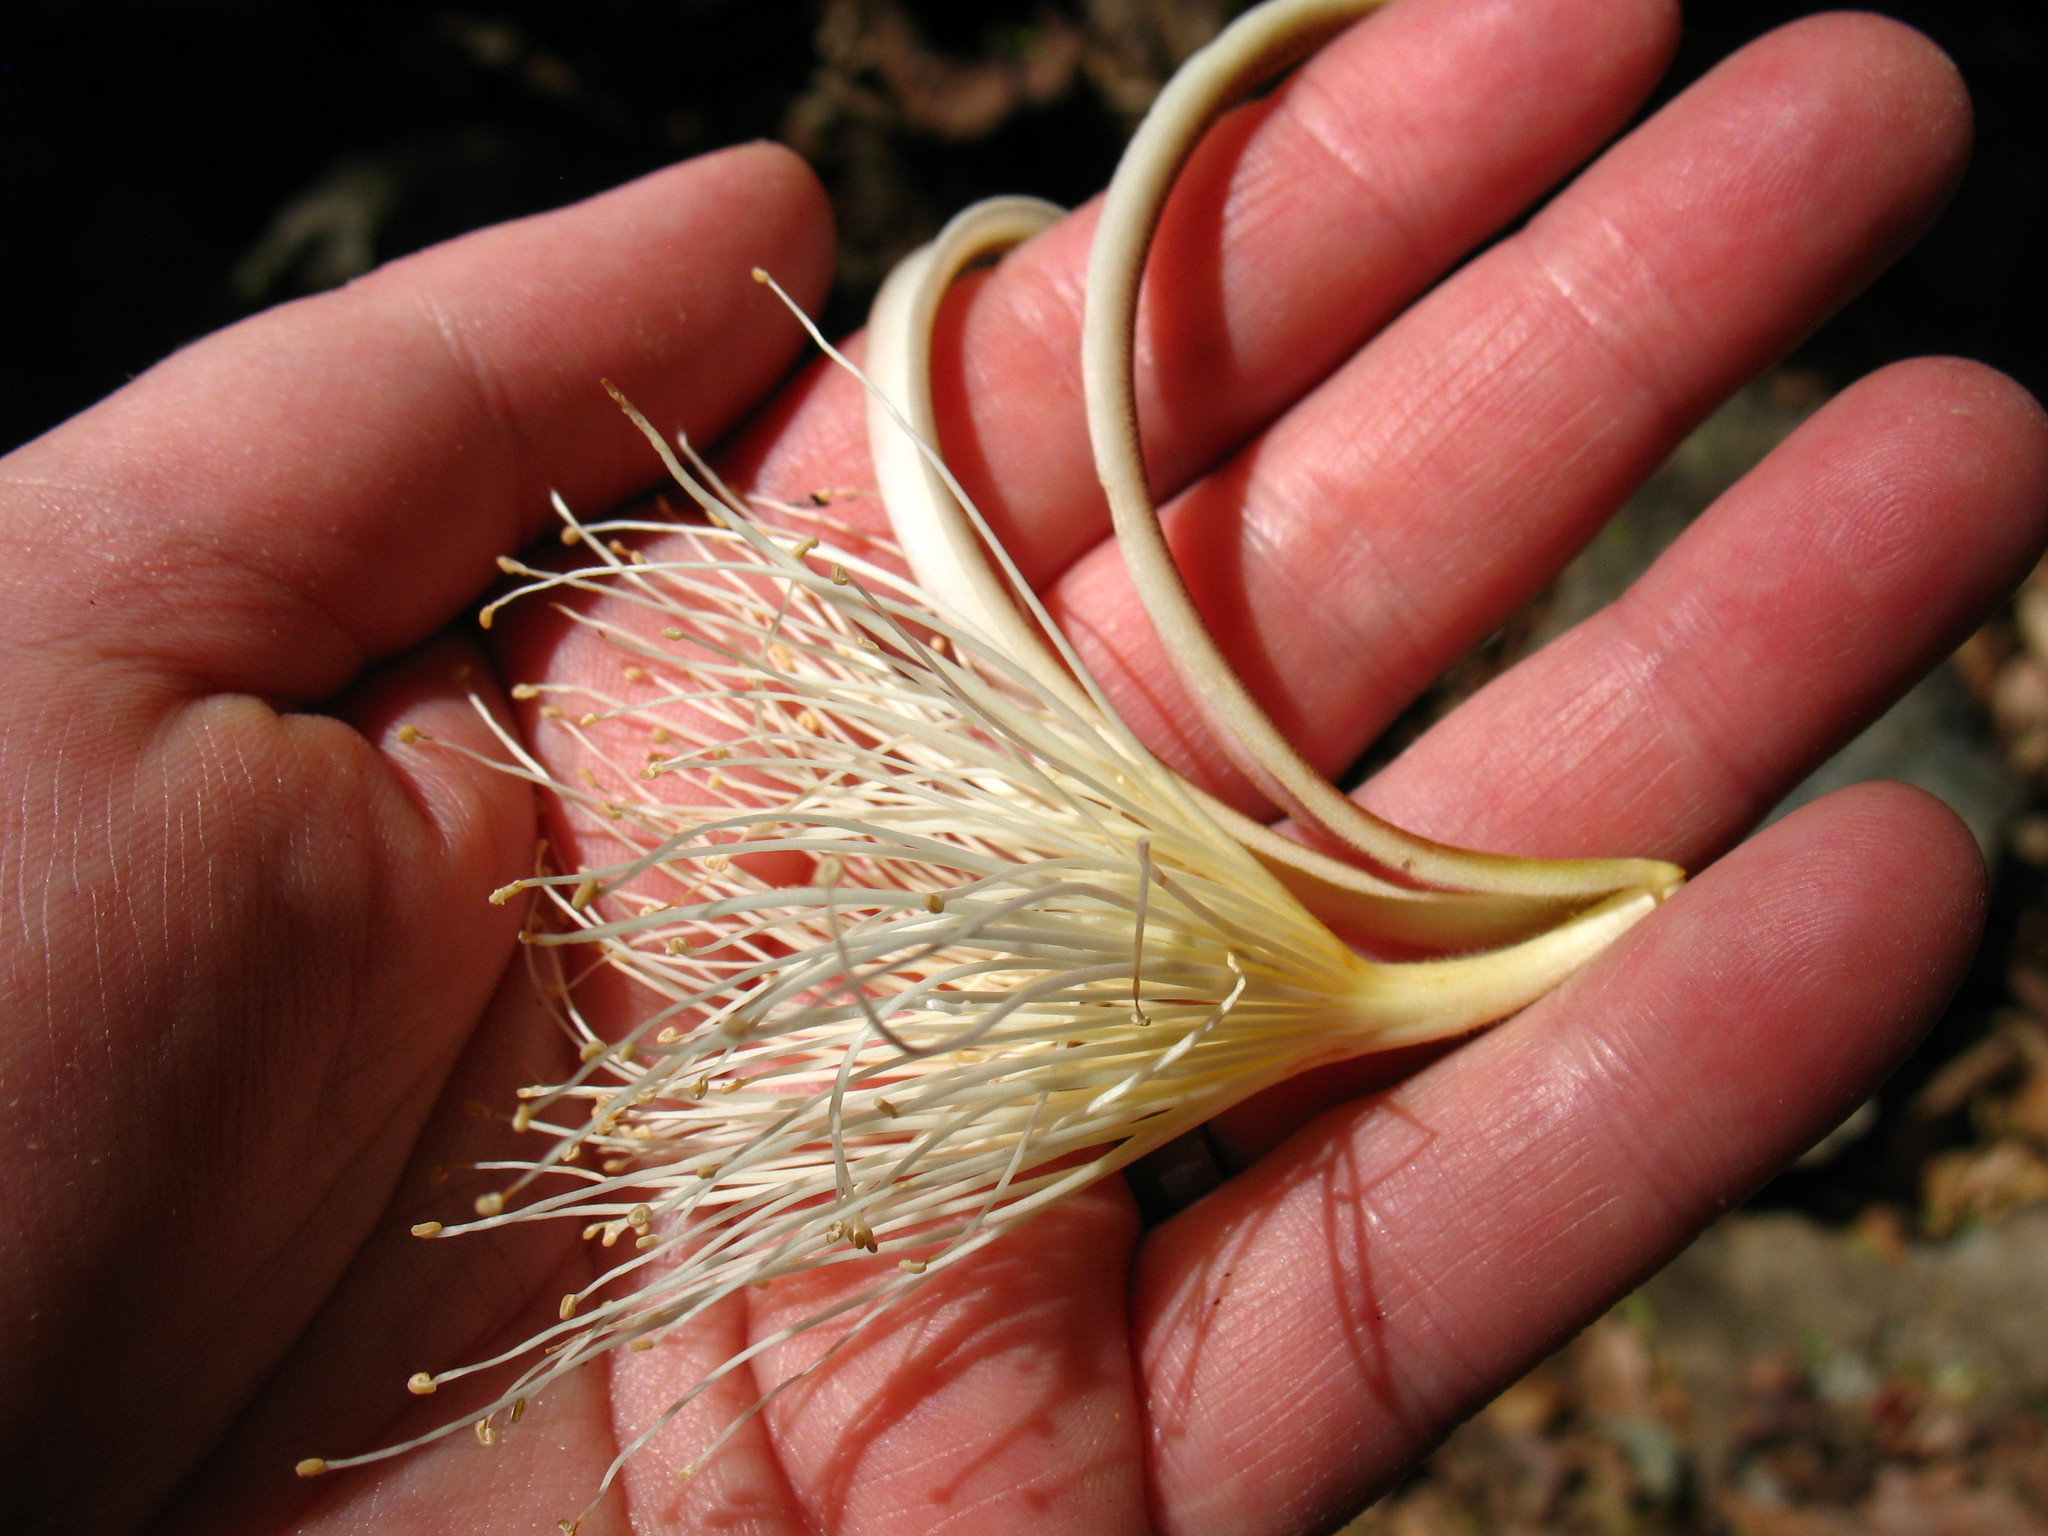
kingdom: Plantae
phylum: Tracheophyta
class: Magnoliopsida
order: Malvales
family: Malvaceae
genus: Pochota
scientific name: Pochota fendleri
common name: Chestnut
